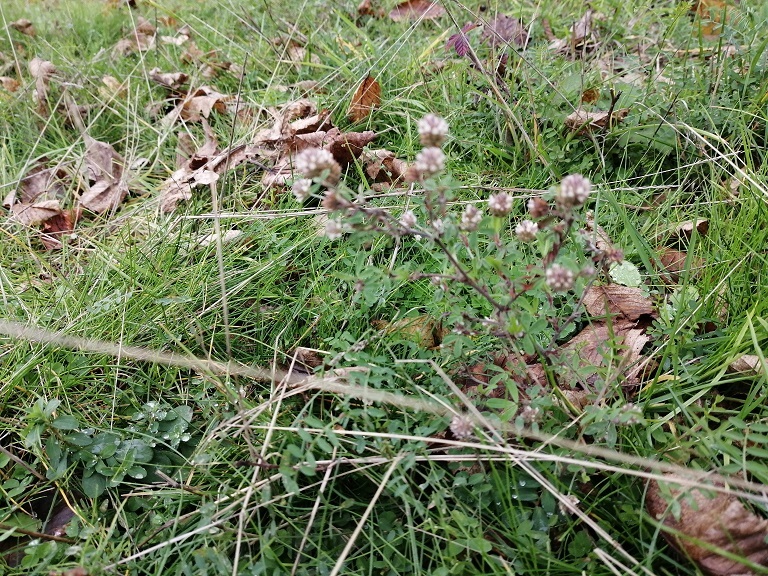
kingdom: Plantae
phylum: Tracheophyta
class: Magnoliopsida
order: Fabales
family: Fabaceae
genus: Trifolium
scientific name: Trifolium arvense
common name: Hare's-foot clover
